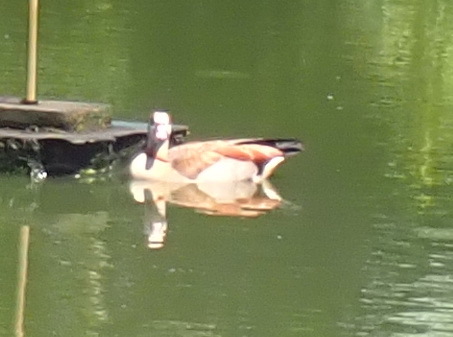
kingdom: Animalia
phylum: Chordata
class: Aves
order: Anseriformes
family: Anatidae
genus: Alopochen
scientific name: Alopochen aegyptiaca
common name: Egyptian goose
